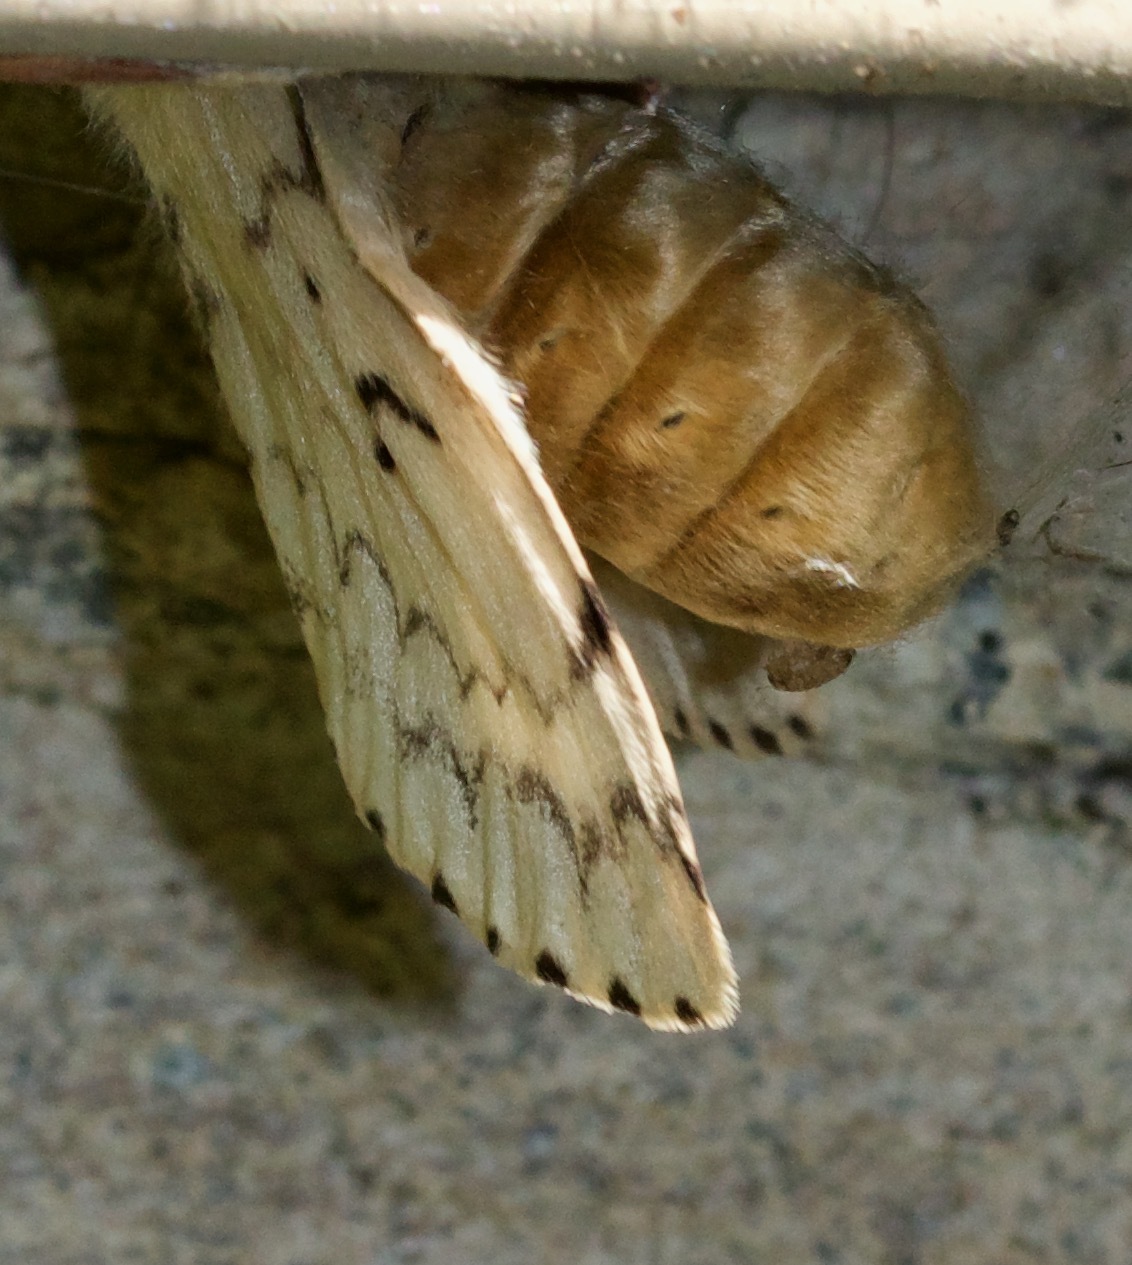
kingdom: Animalia
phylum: Arthropoda
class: Insecta
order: Lepidoptera
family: Erebidae
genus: Lymantria
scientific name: Lymantria dispar
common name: Gypsy moth
